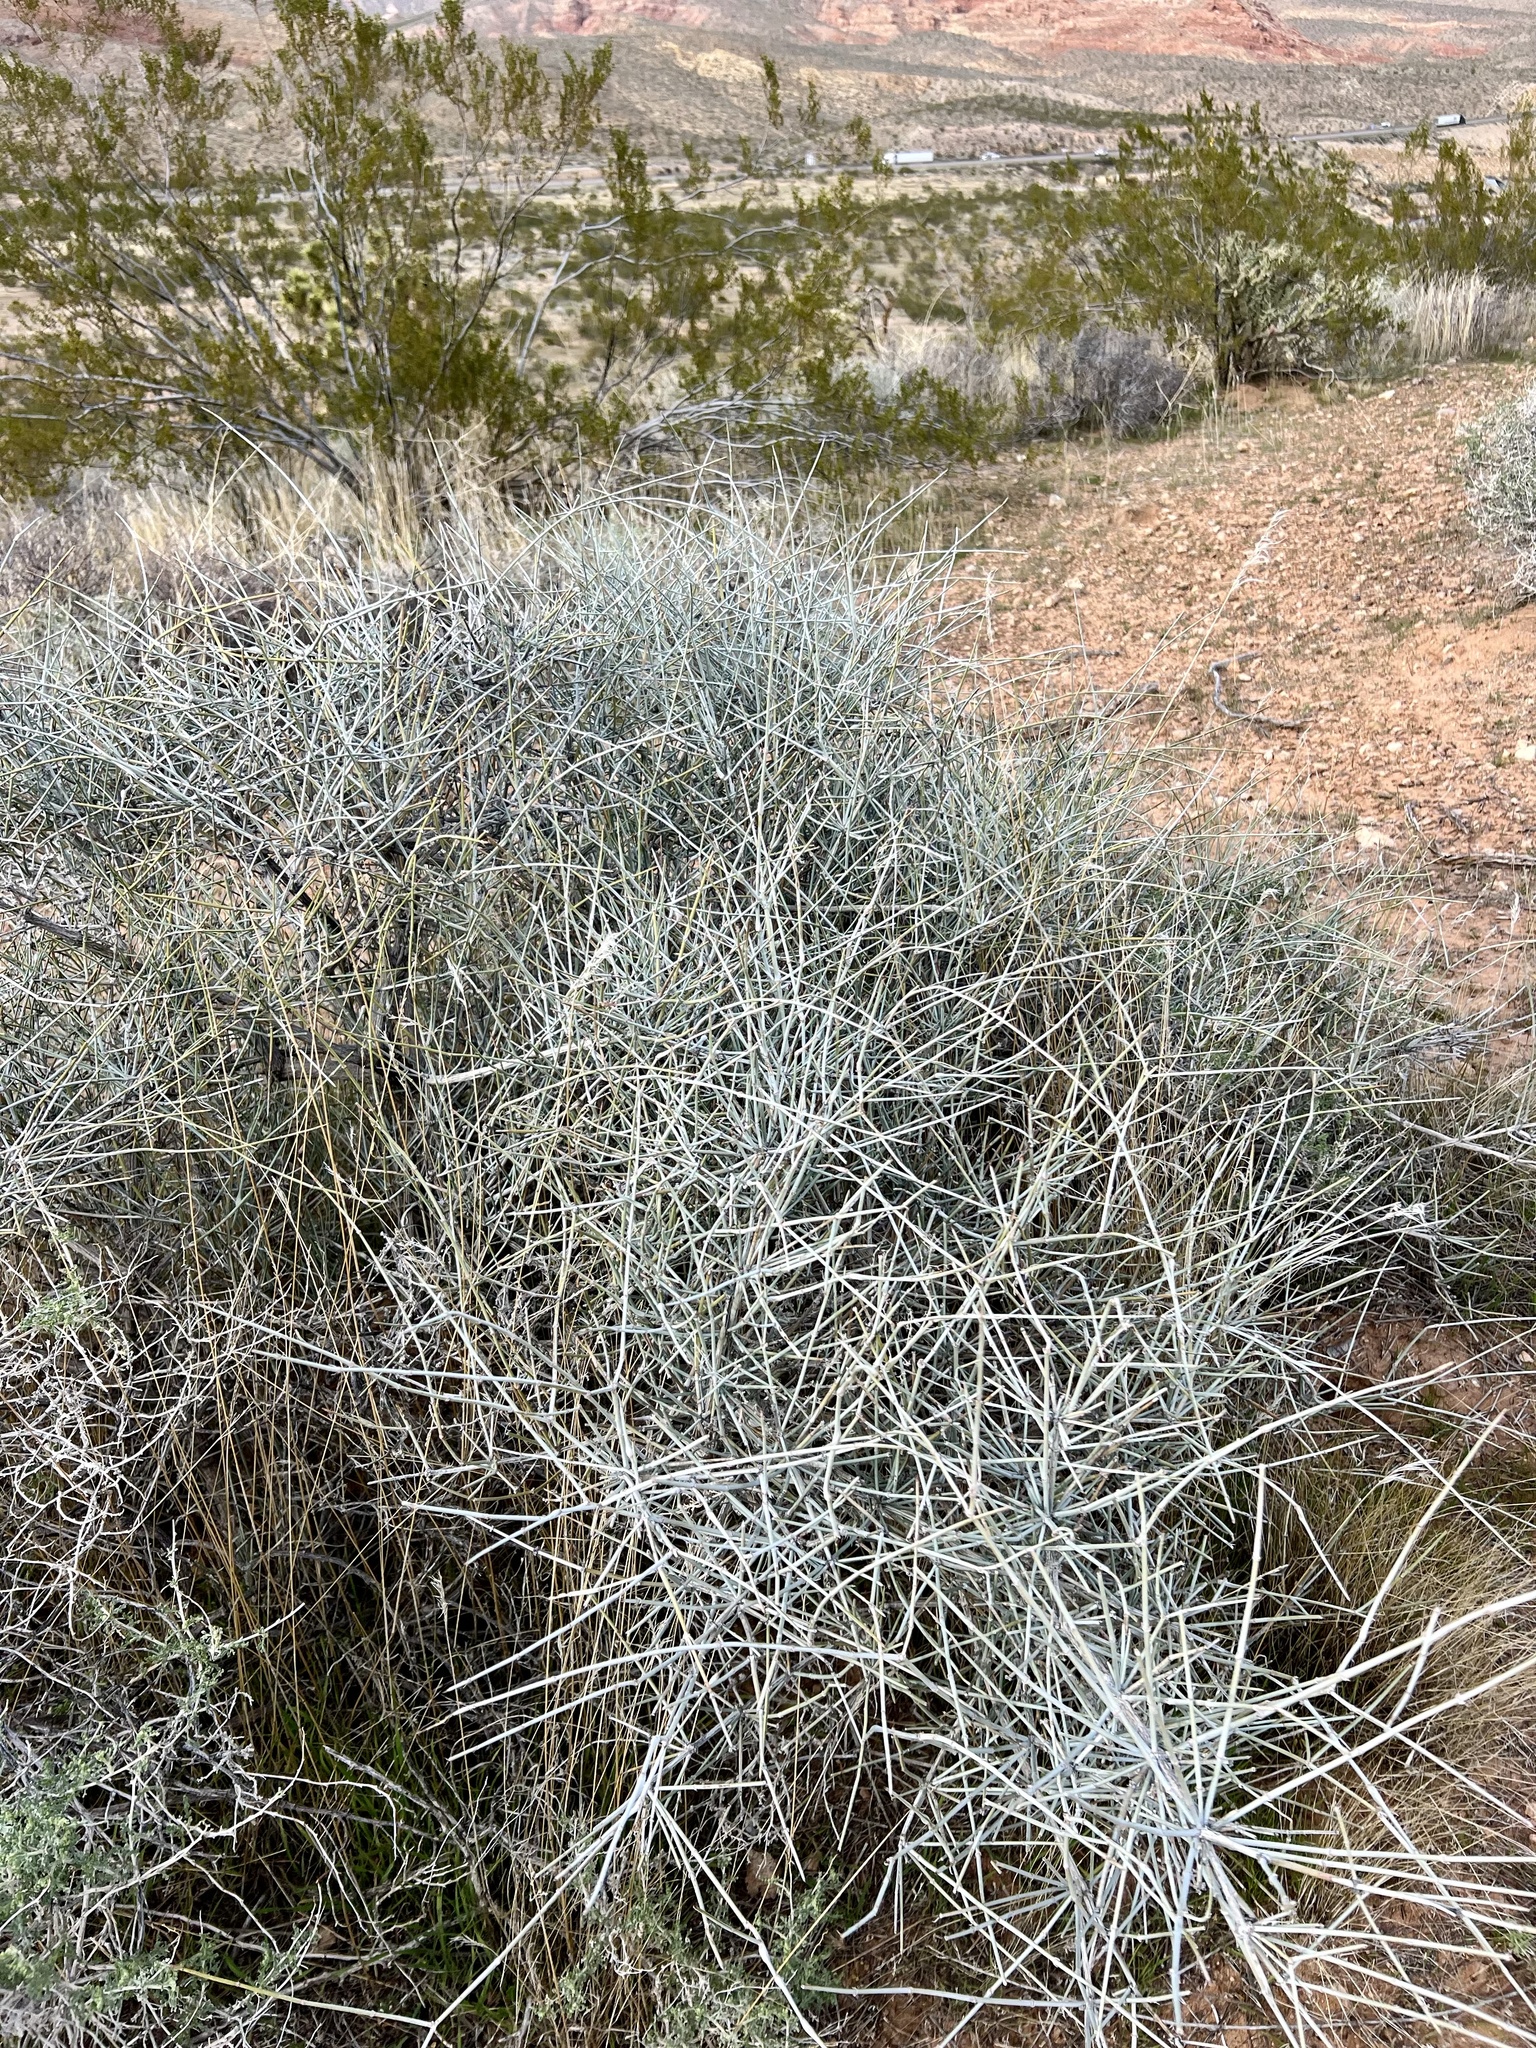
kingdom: Plantae
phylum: Tracheophyta
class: Gnetopsida
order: Ephedrales
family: Ephedraceae
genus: Ephedra
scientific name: Ephedra nevadensis
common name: Gray ephedra
